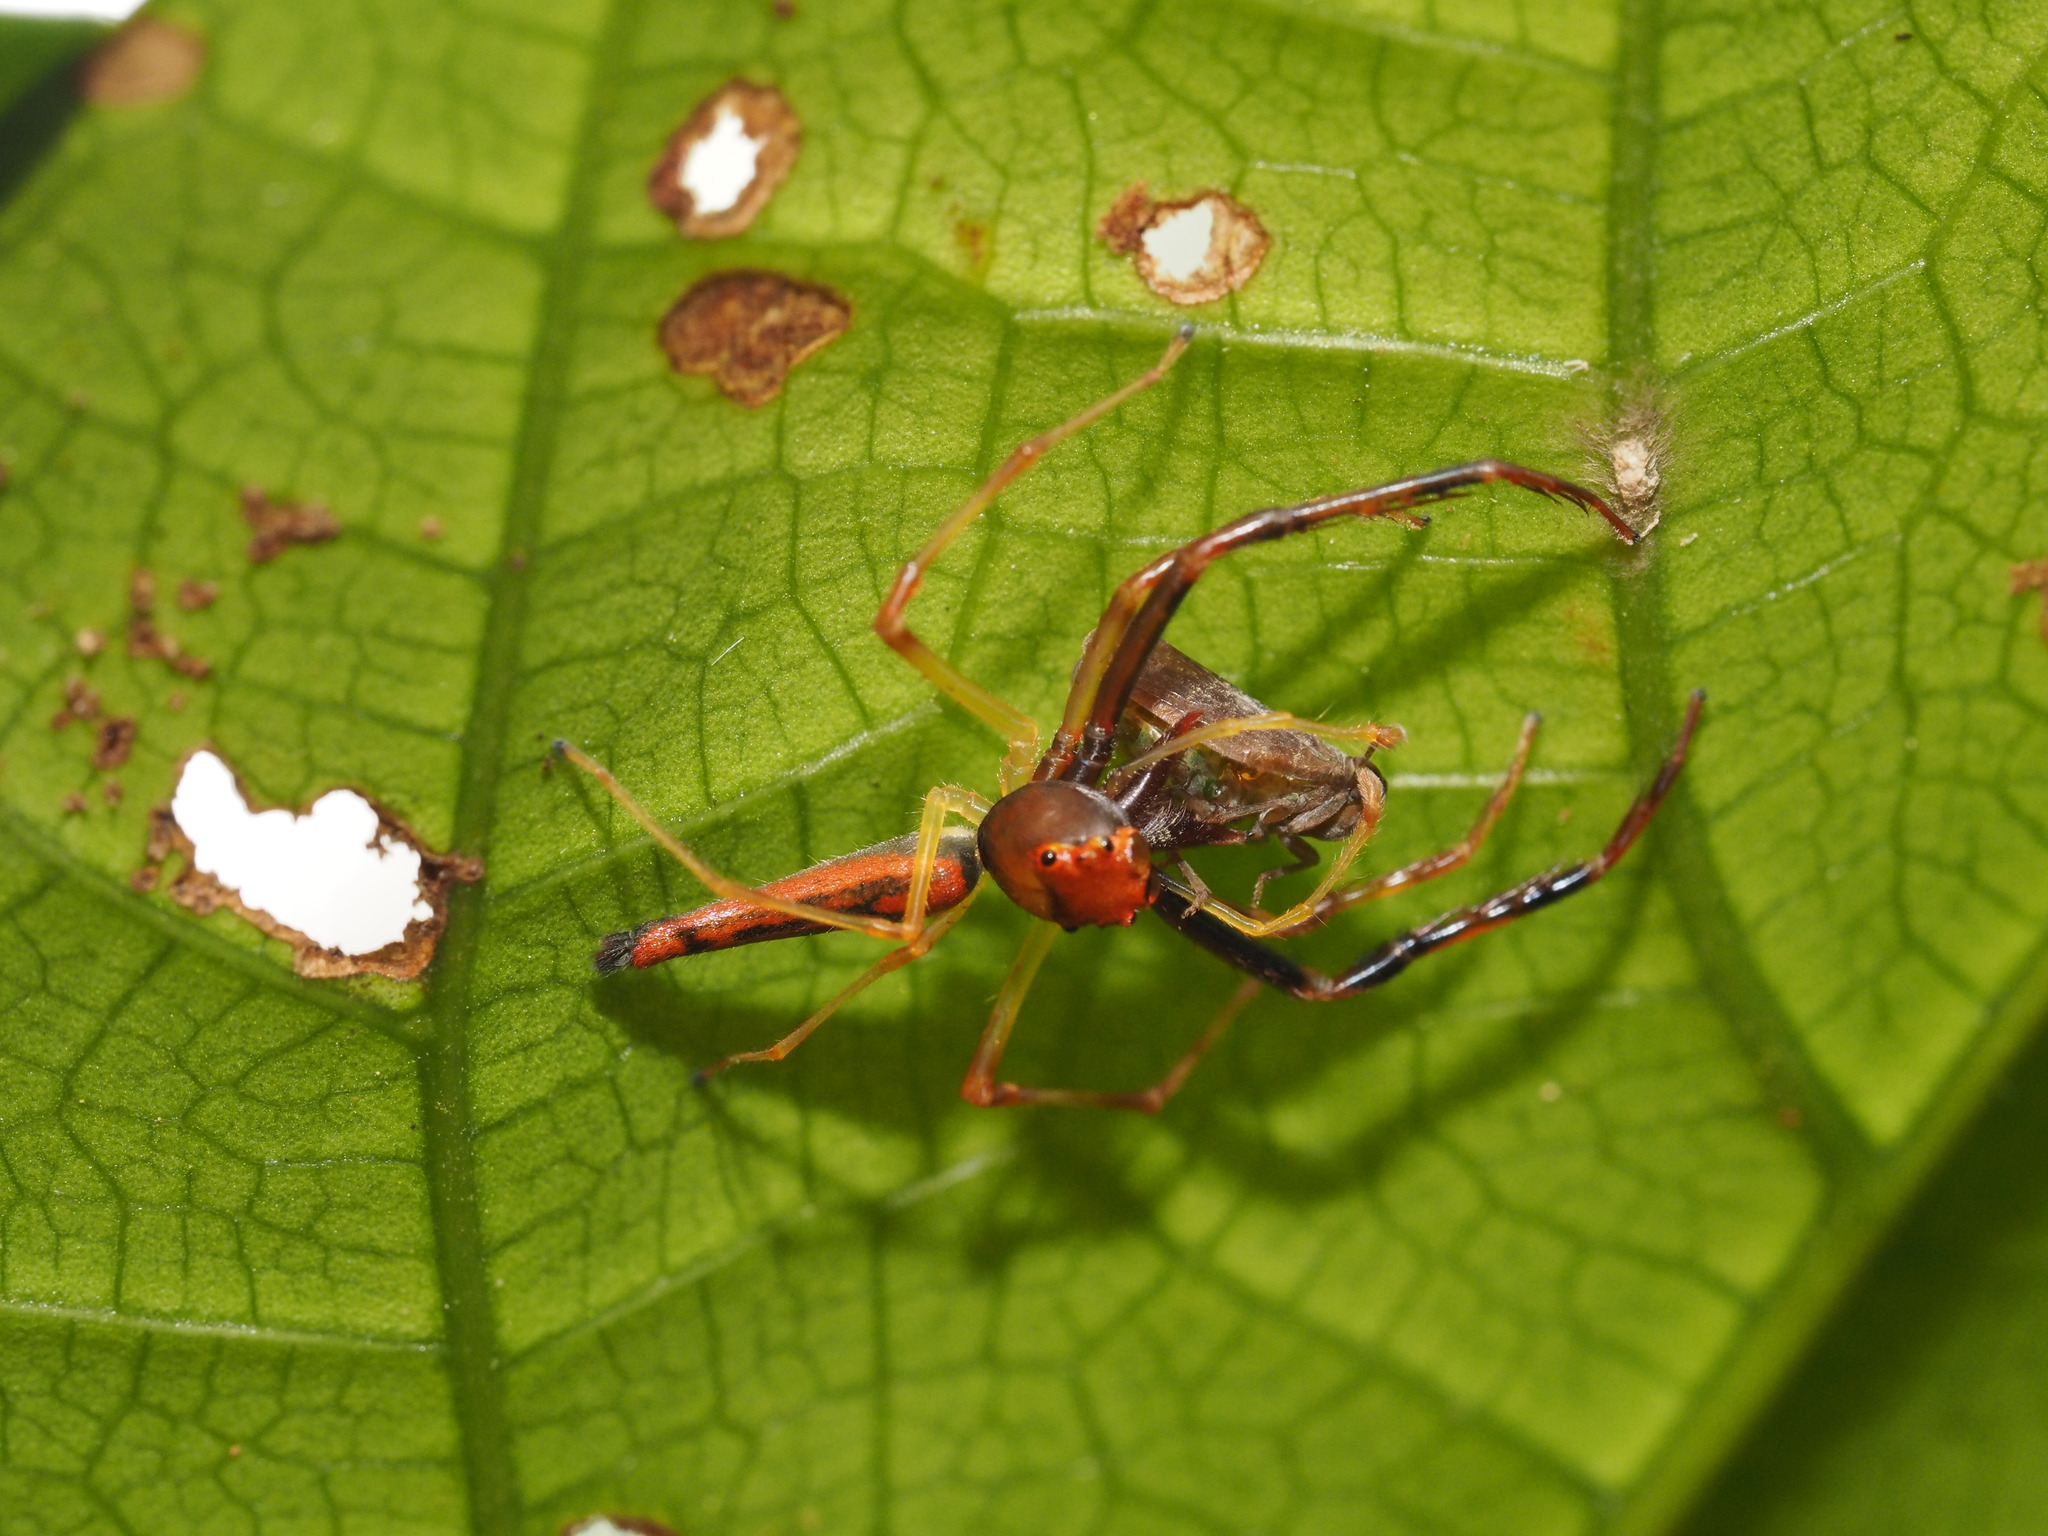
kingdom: Animalia
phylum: Arthropoda
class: Arachnida
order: Araneae
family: Salticidae
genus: Viciria
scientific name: Viciria pavesii
